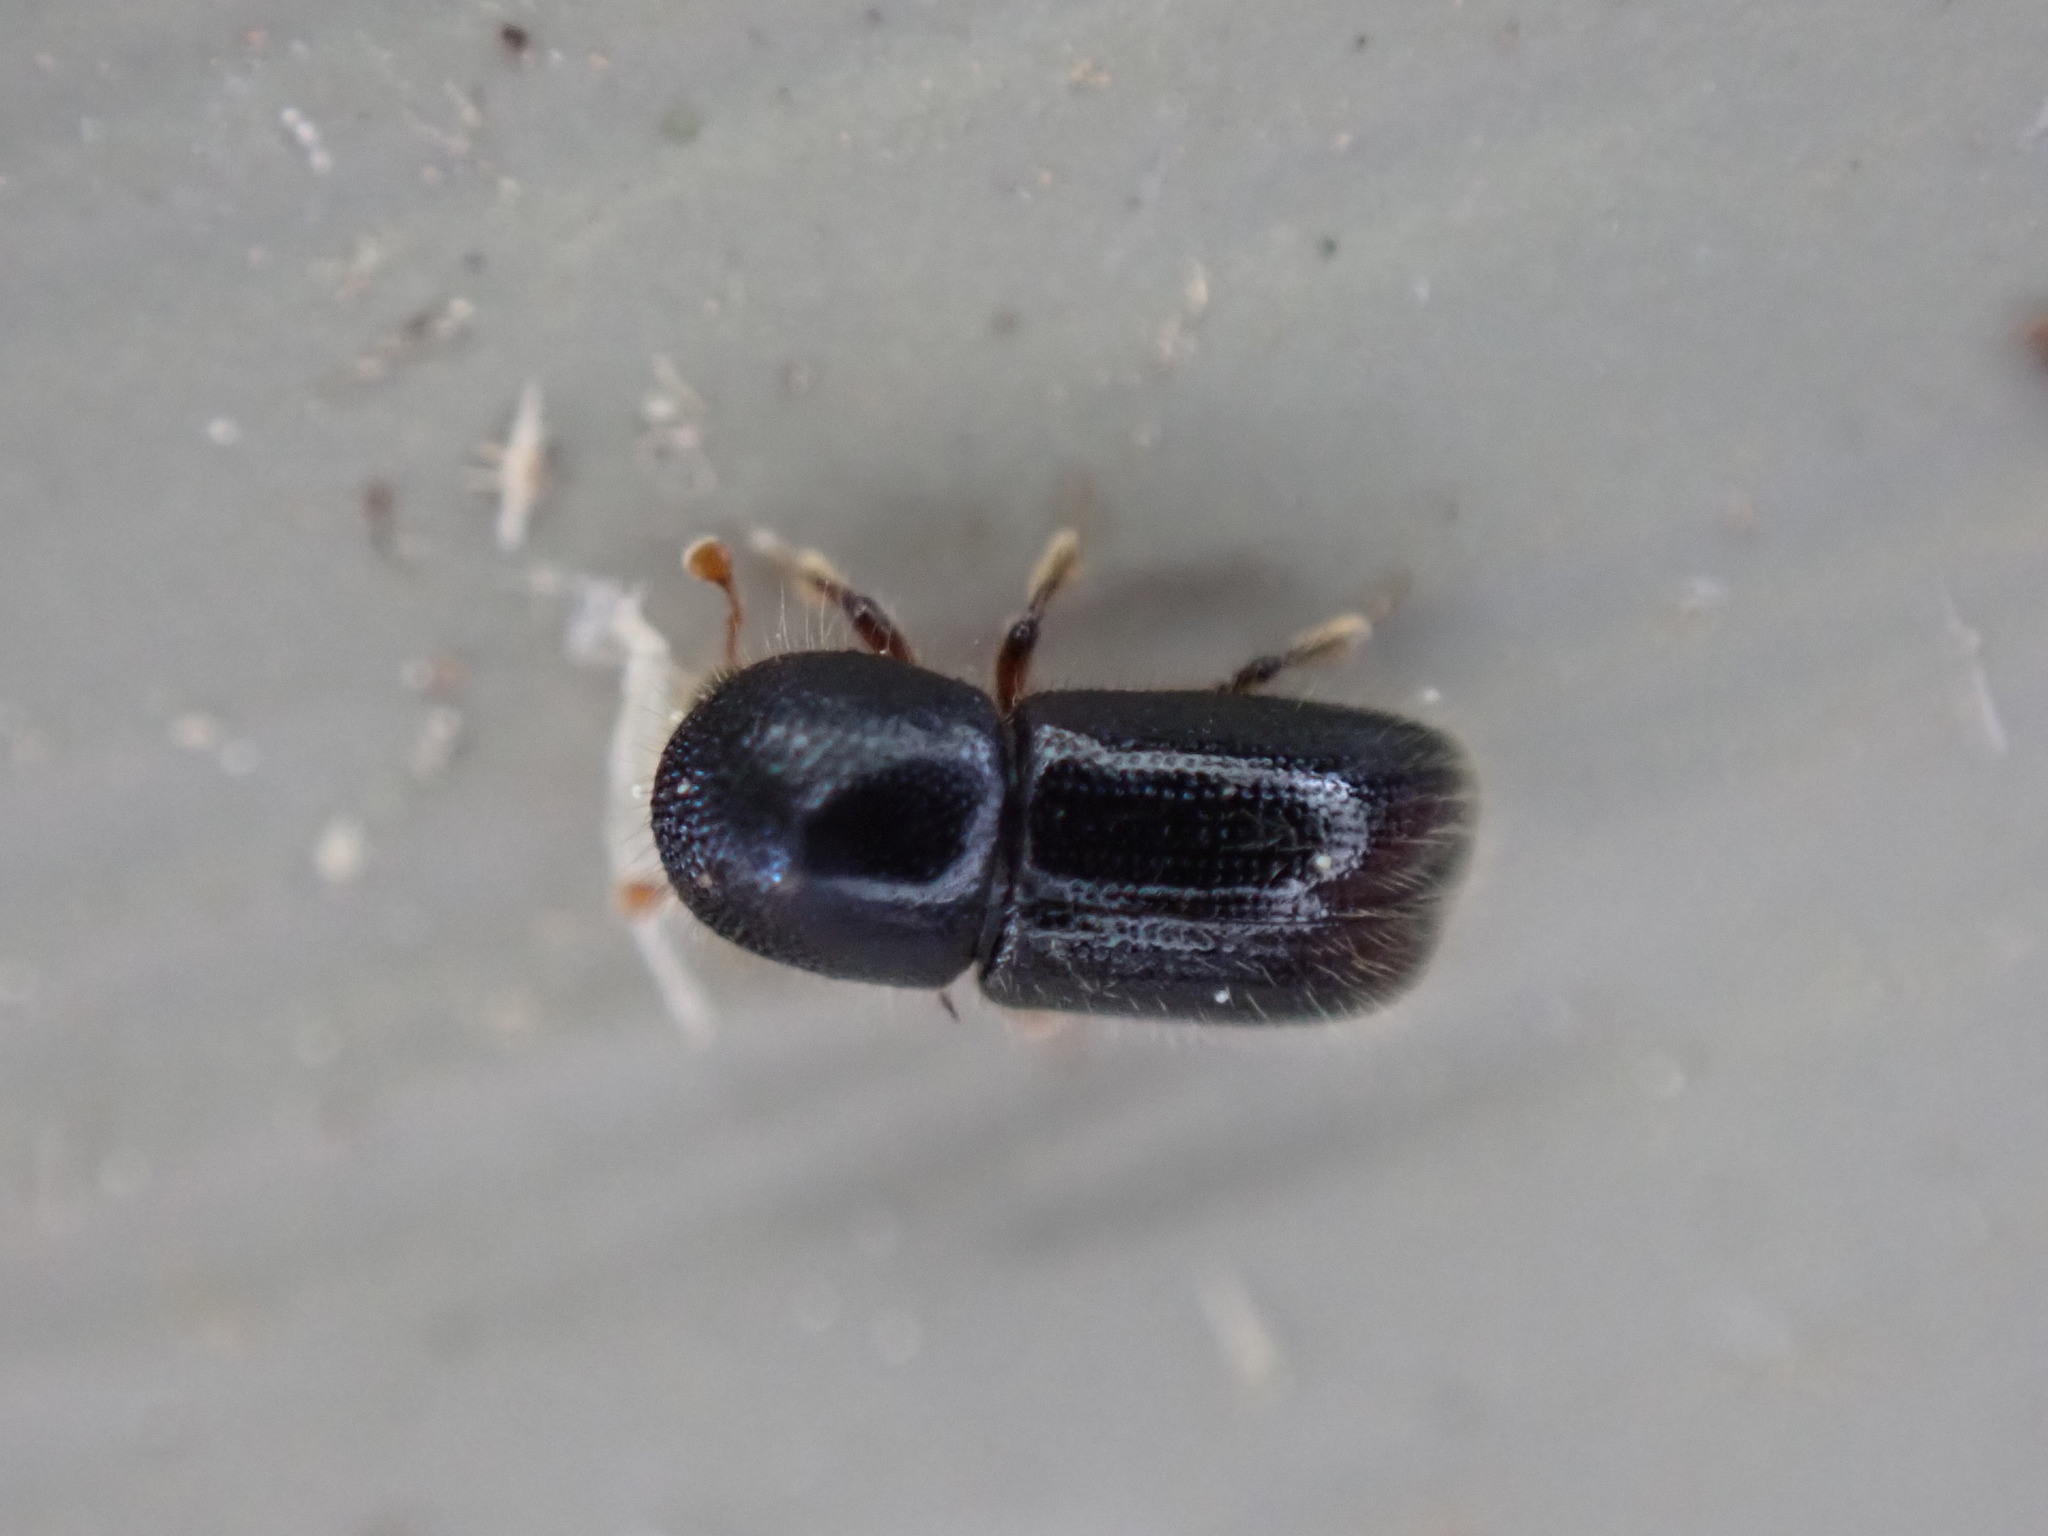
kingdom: Animalia
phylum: Arthropoda
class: Insecta
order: Coleoptera
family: Curculionidae
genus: Xyleborus
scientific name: Xyleborus atratus
